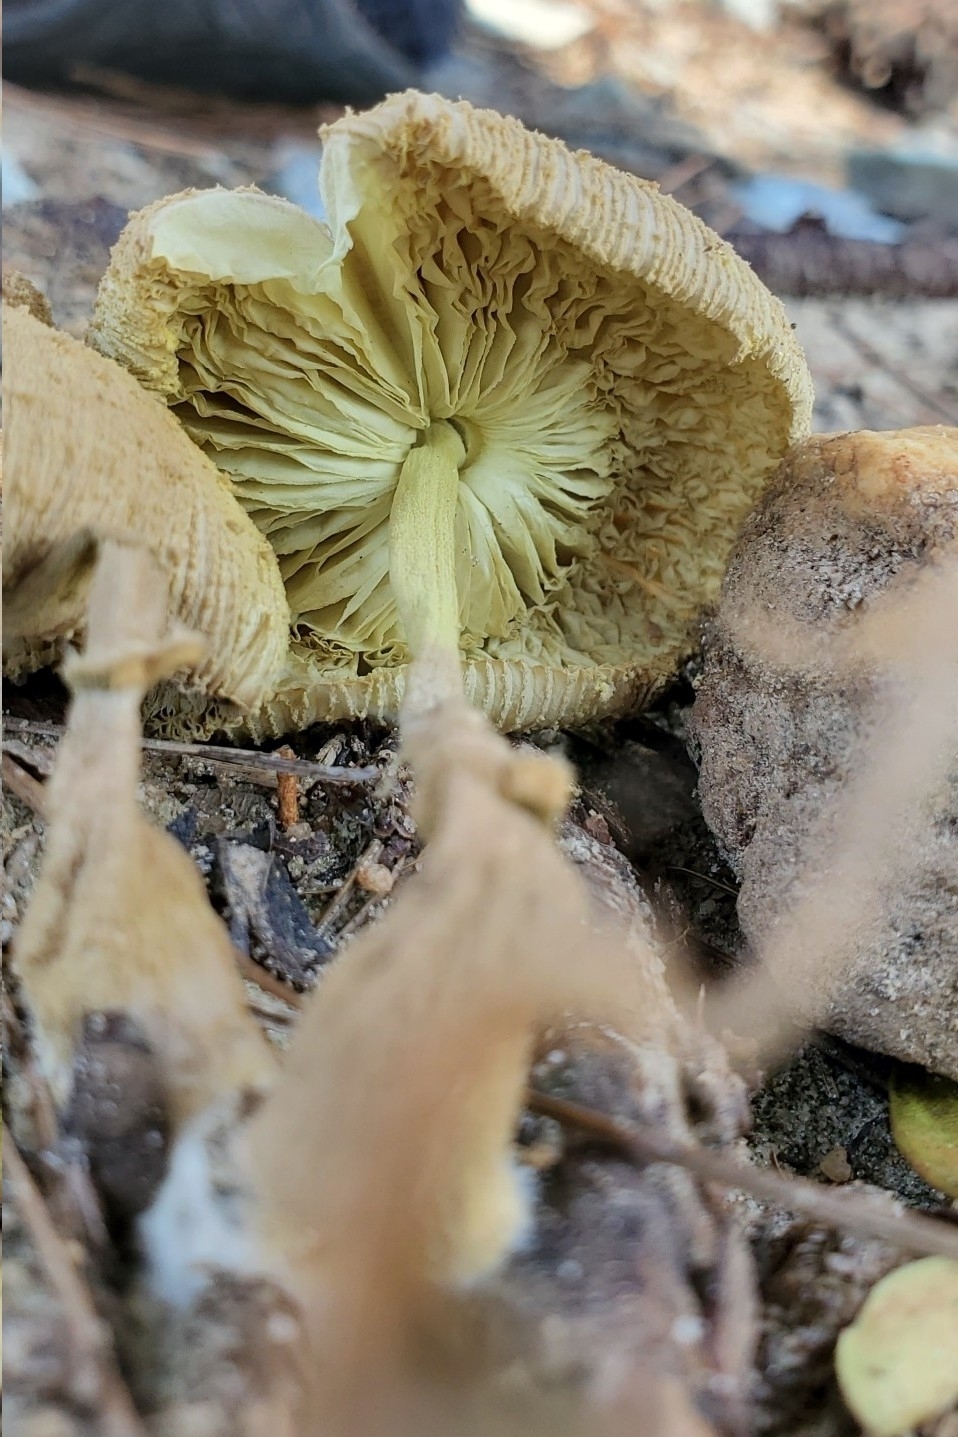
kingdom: Fungi
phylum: Basidiomycota
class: Agaricomycetes
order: Agaricales
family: Agaricaceae
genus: Leucocoprinus
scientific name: Leucocoprinus birnbaumii
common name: Plantpot dapperling
